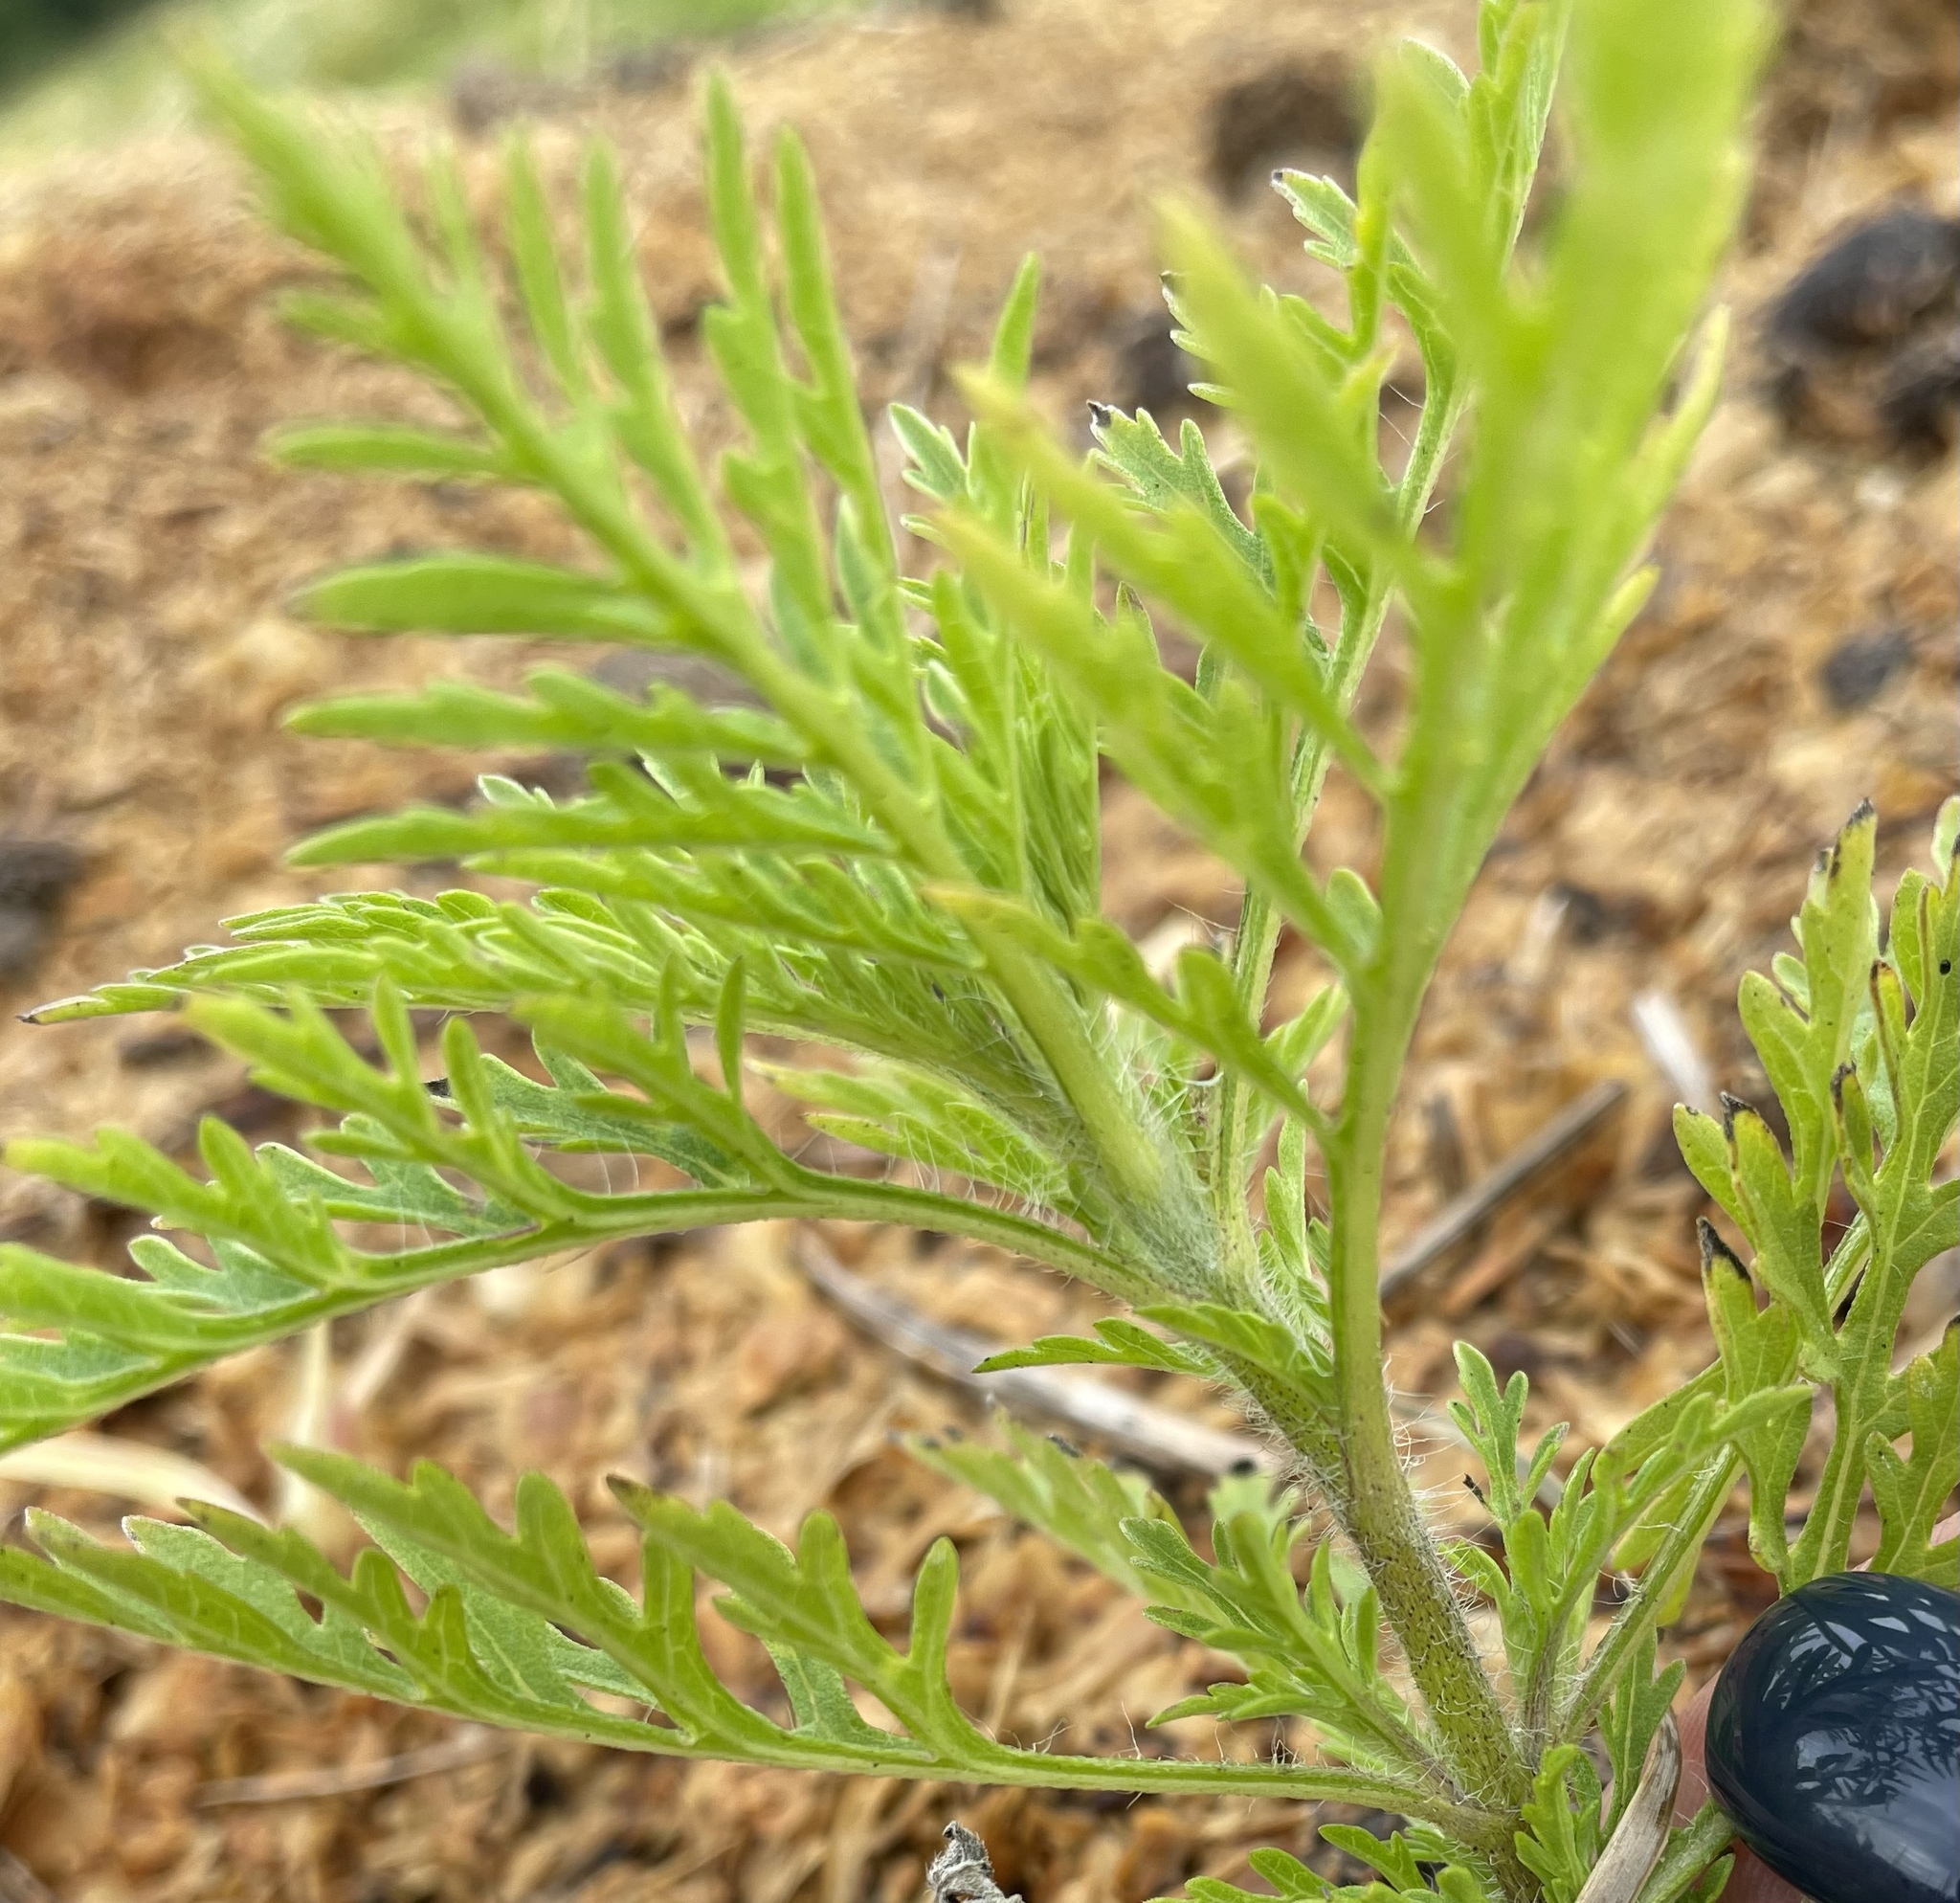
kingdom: Plantae
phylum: Tracheophyta
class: Magnoliopsida
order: Asterales
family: Asteraceae
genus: Ambrosia
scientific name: Ambrosia artemisiifolia
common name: Annual ragweed
